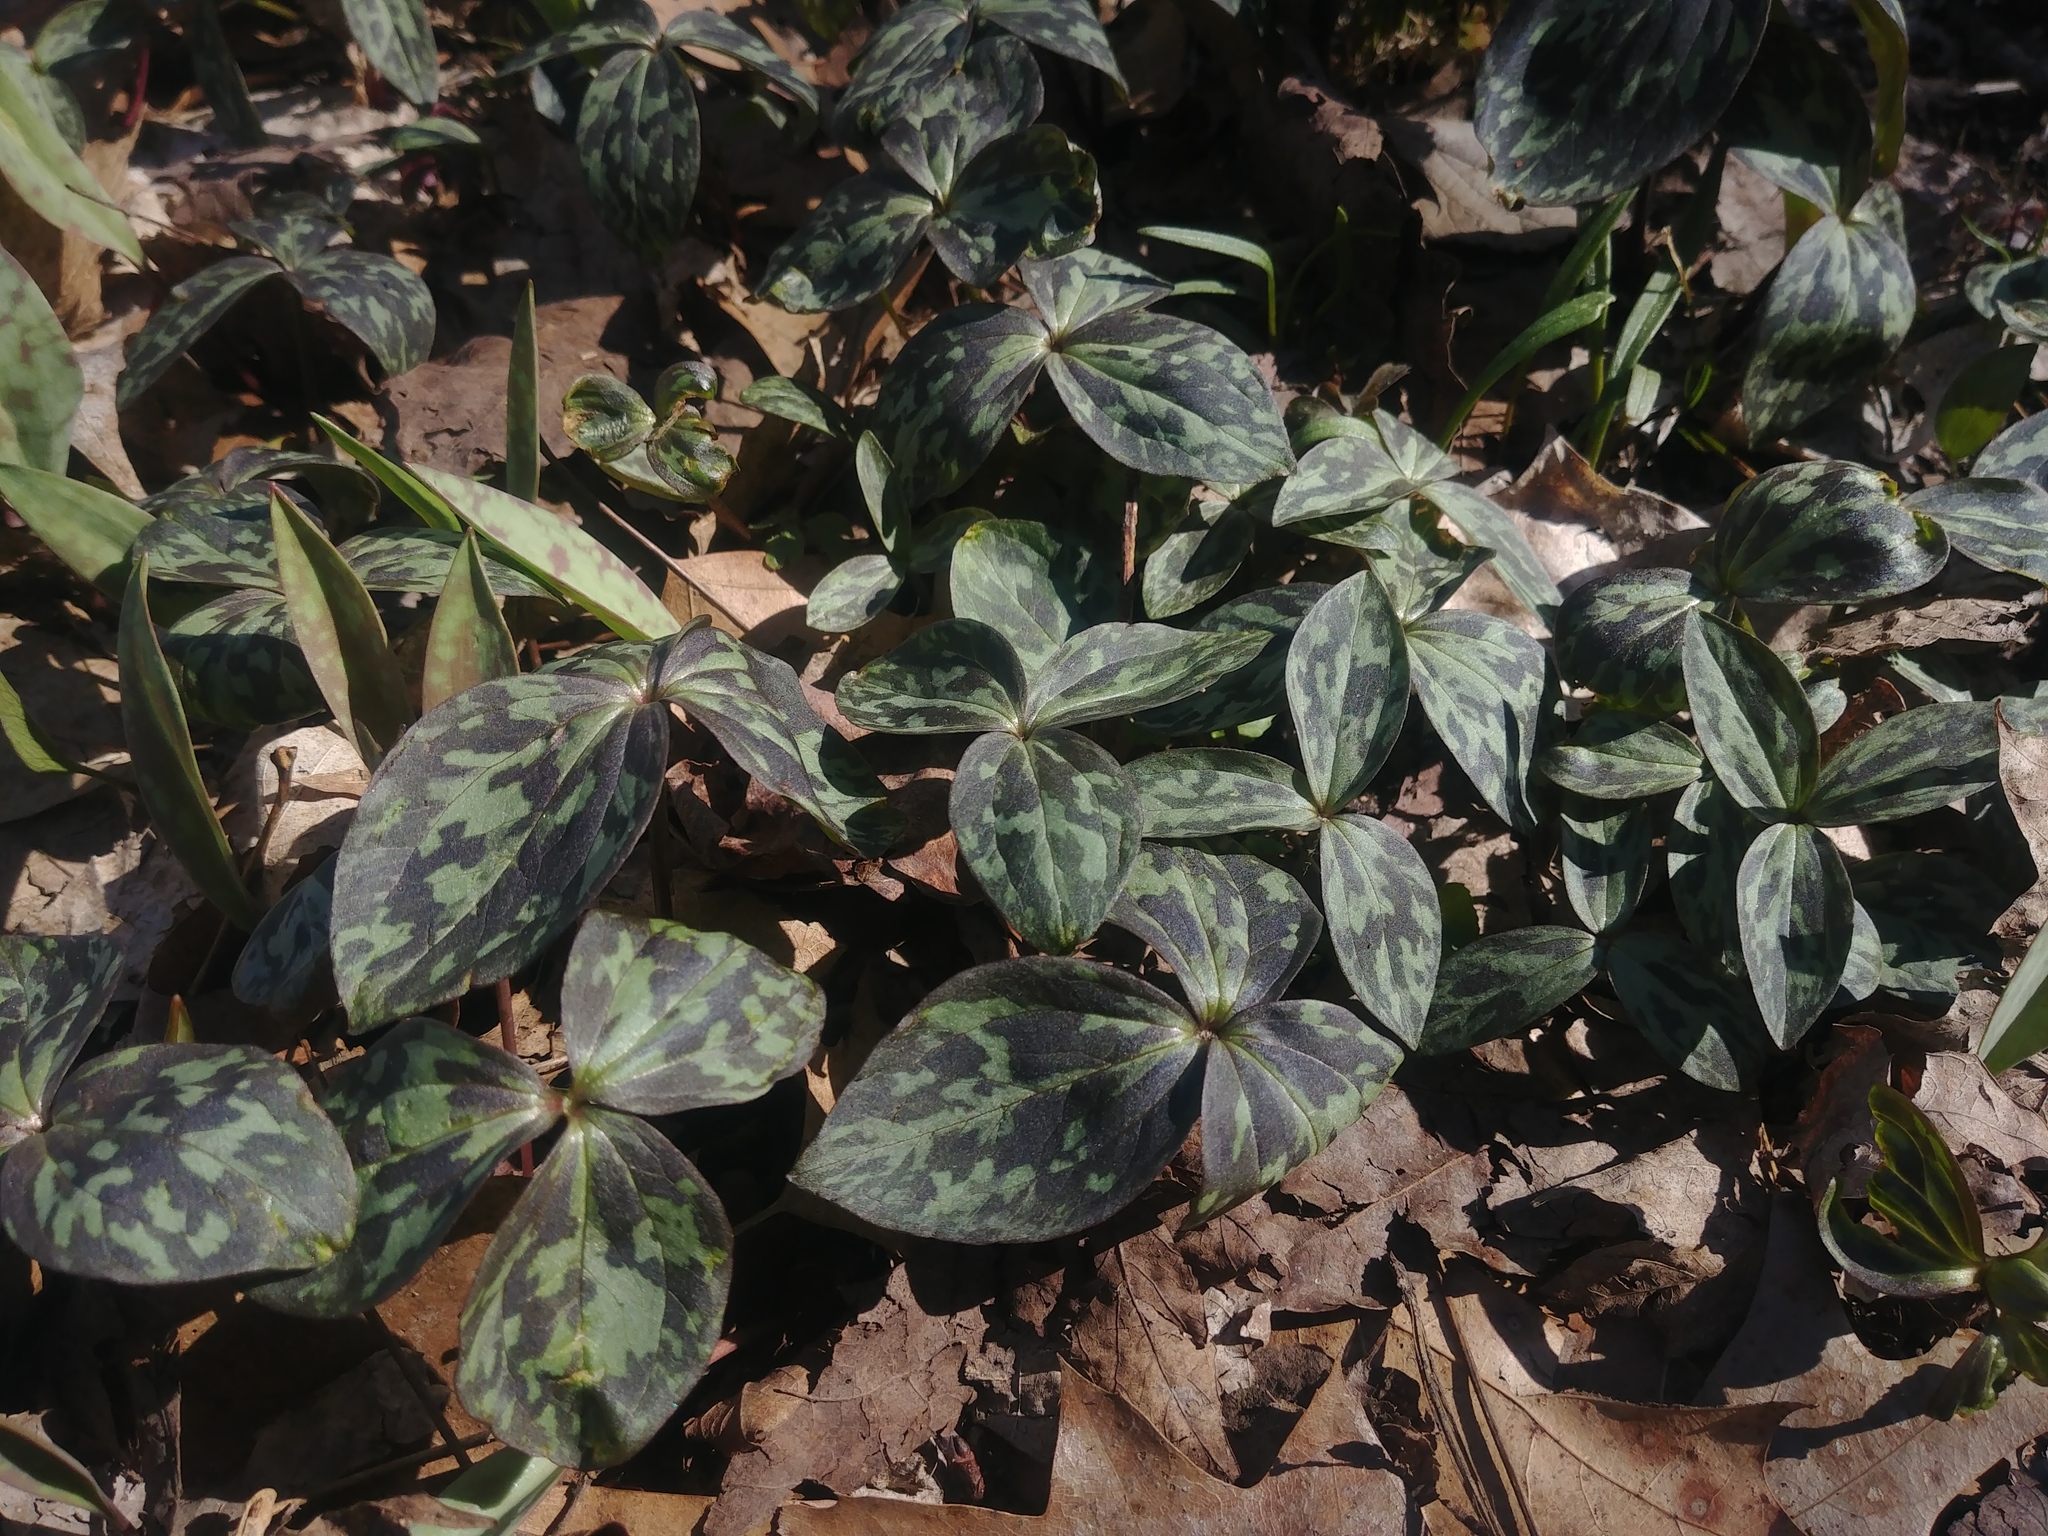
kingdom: Plantae
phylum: Tracheophyta
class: Liliopsida
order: Liliales
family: Melanthiaceae
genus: Trillium
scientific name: Trillium recurvatum
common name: Bloody butcher
